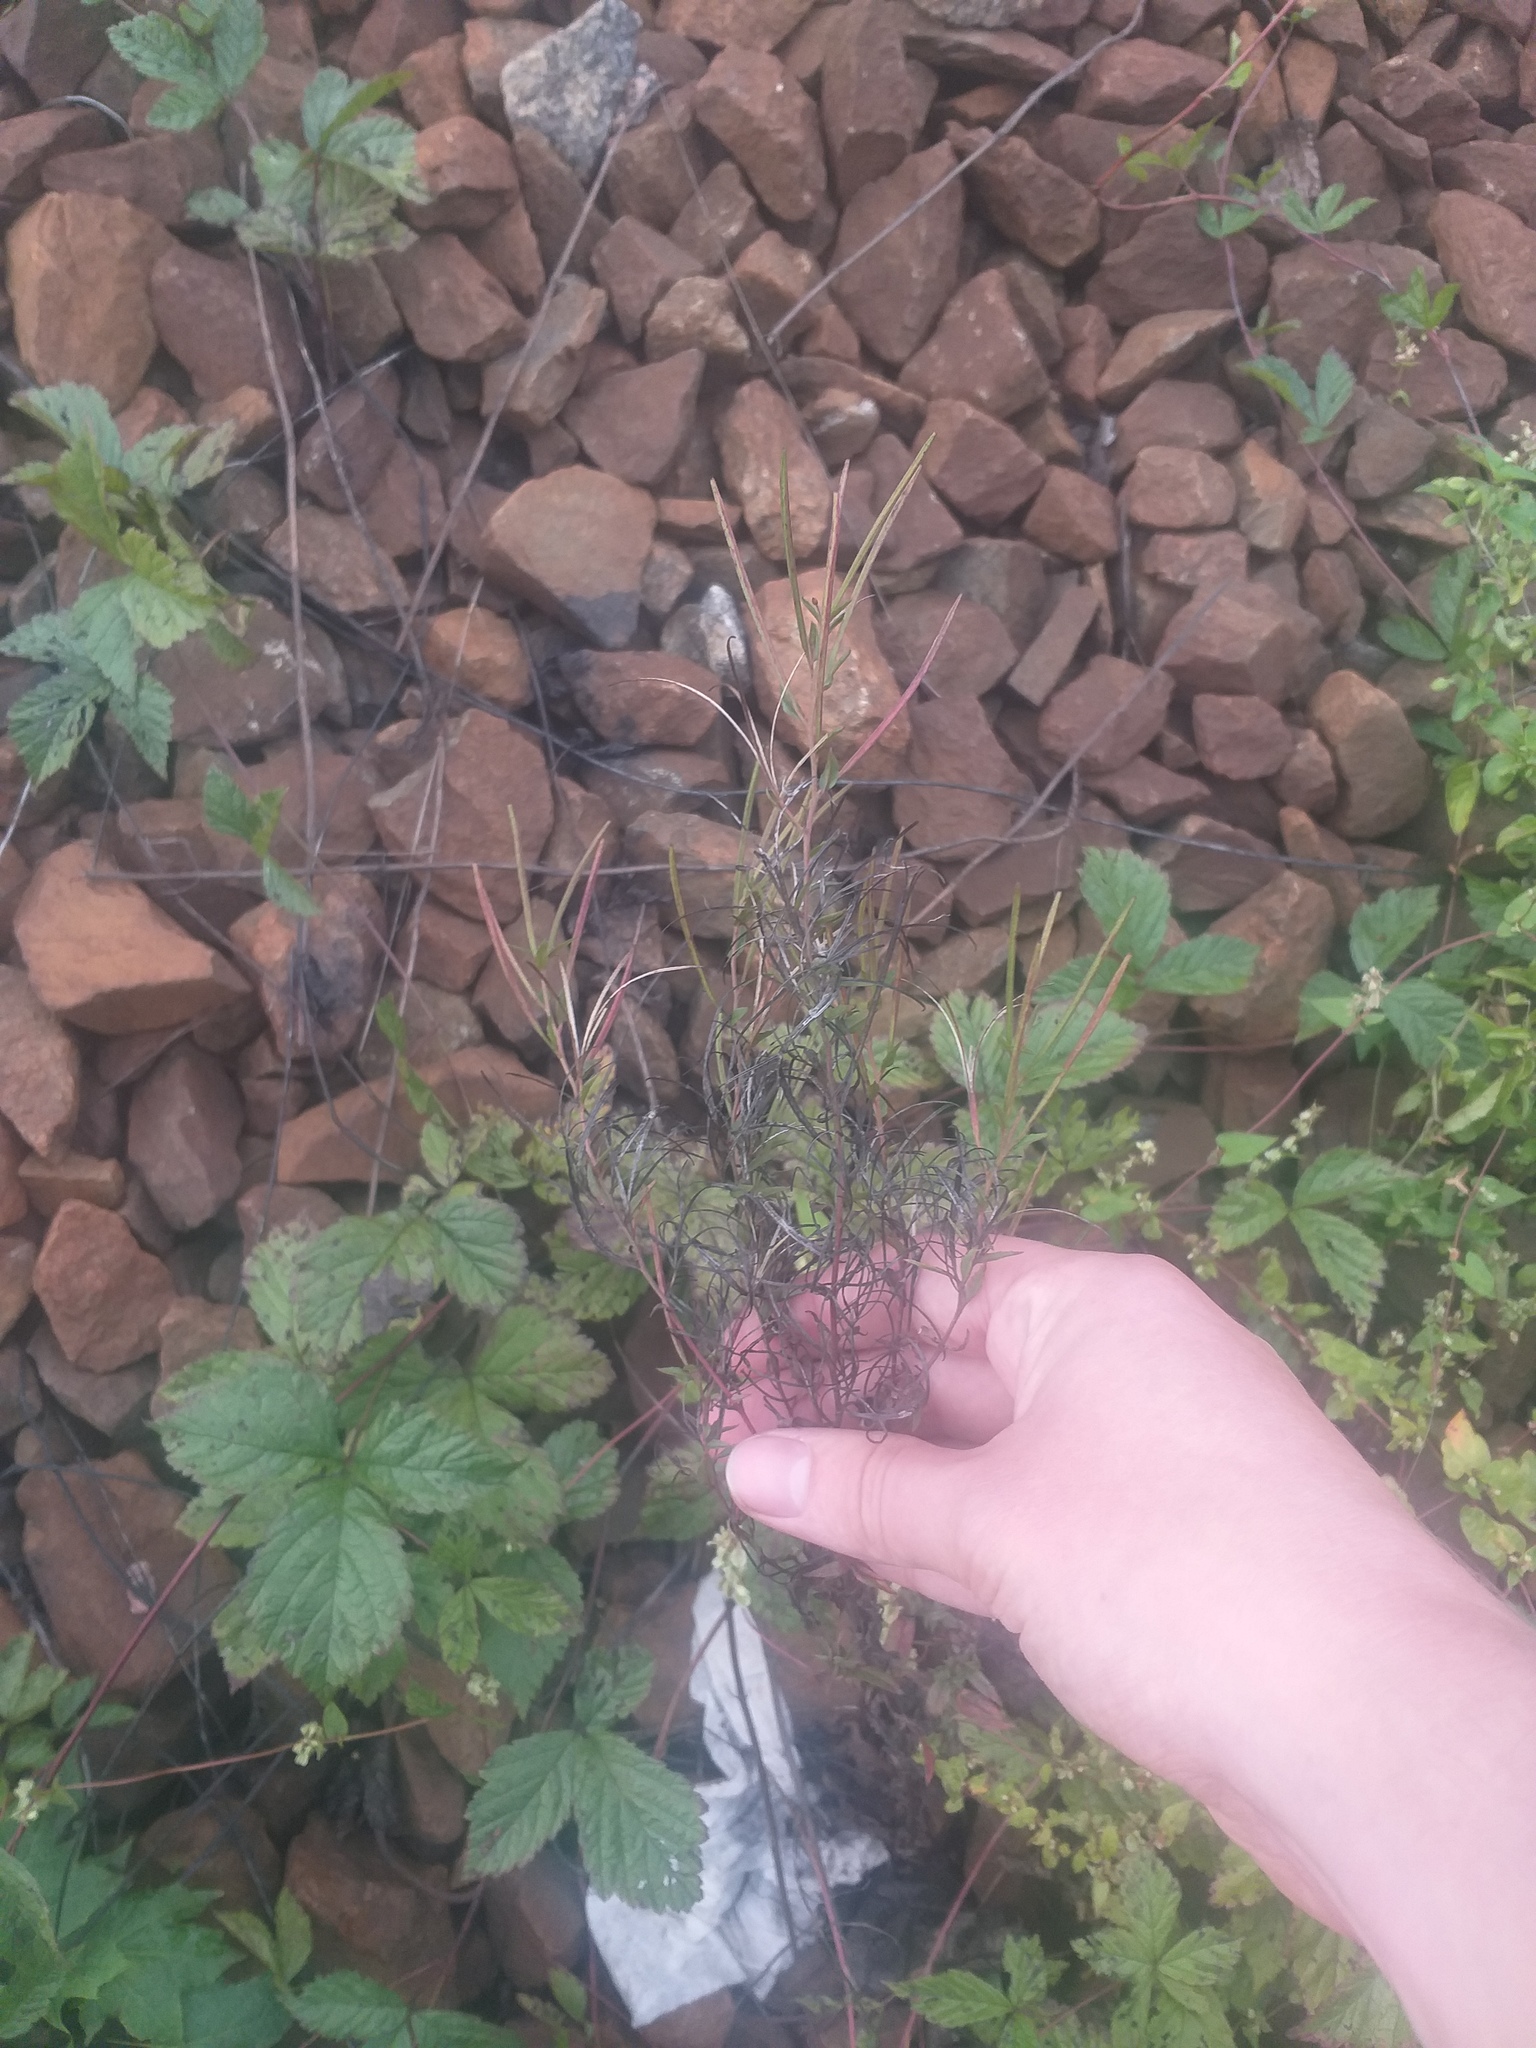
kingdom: Plantae
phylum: Tracheophyta
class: Magnoliopsida
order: Myrtales
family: Onagraceae
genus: Epilobium
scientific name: Epilobium
